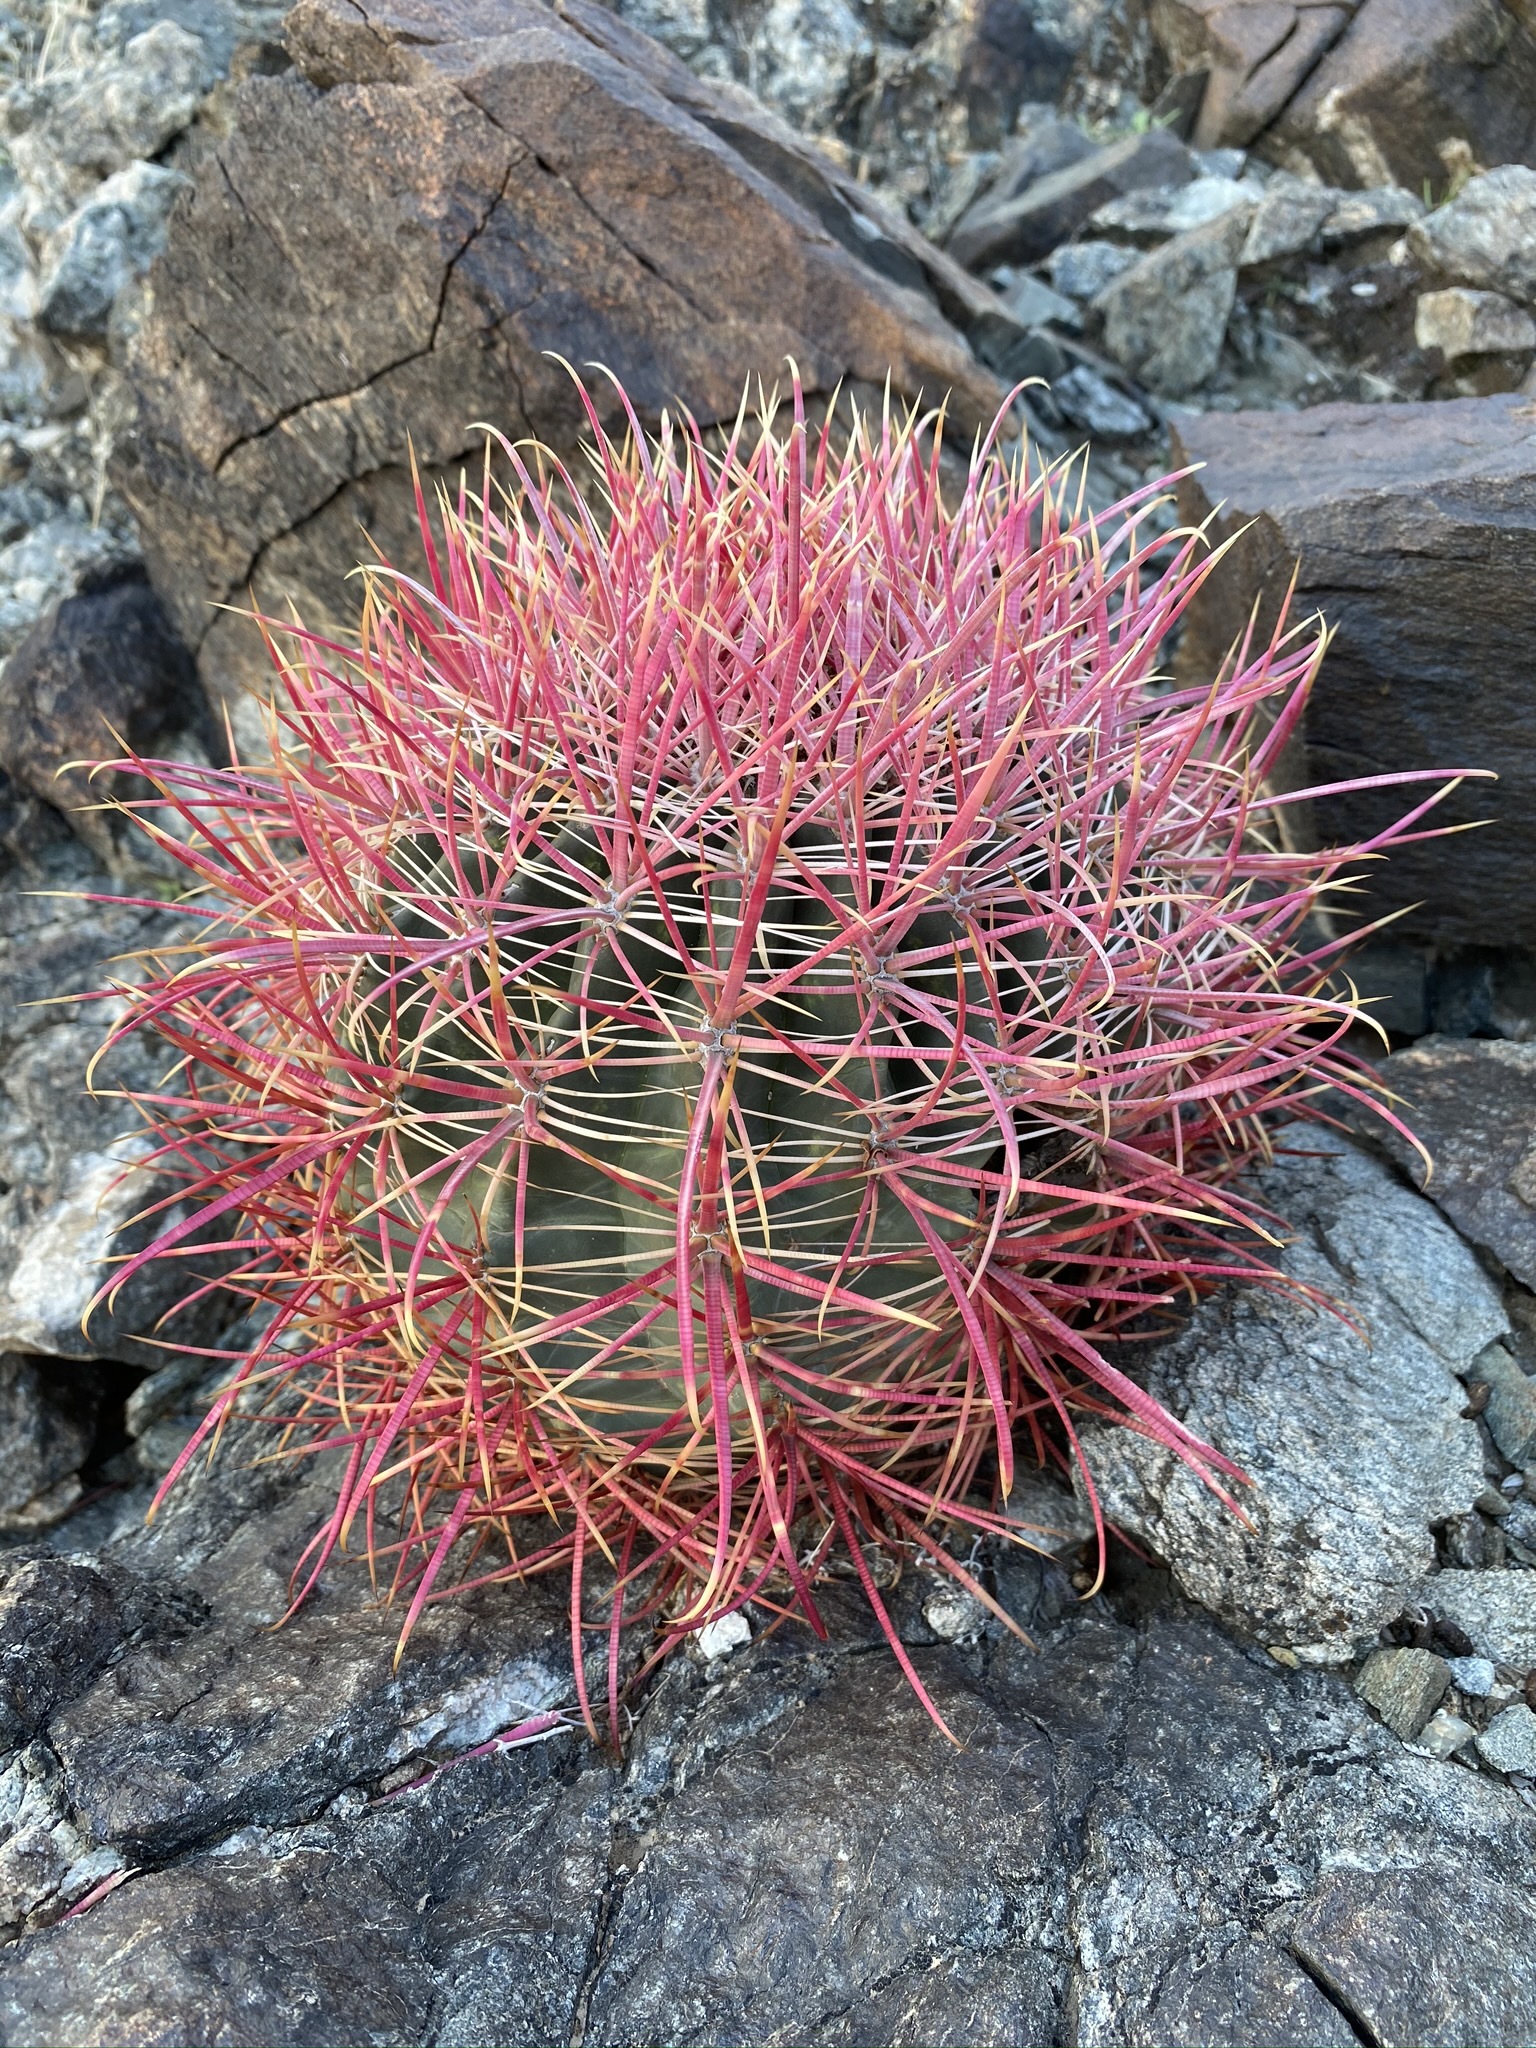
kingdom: Plantae
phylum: Tracheophyta
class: Magnoliopsida
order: Caryophyllales
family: Cactaceae
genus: Ferocactus
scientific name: Ferocactus cylindraceus
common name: California barrel cactus
